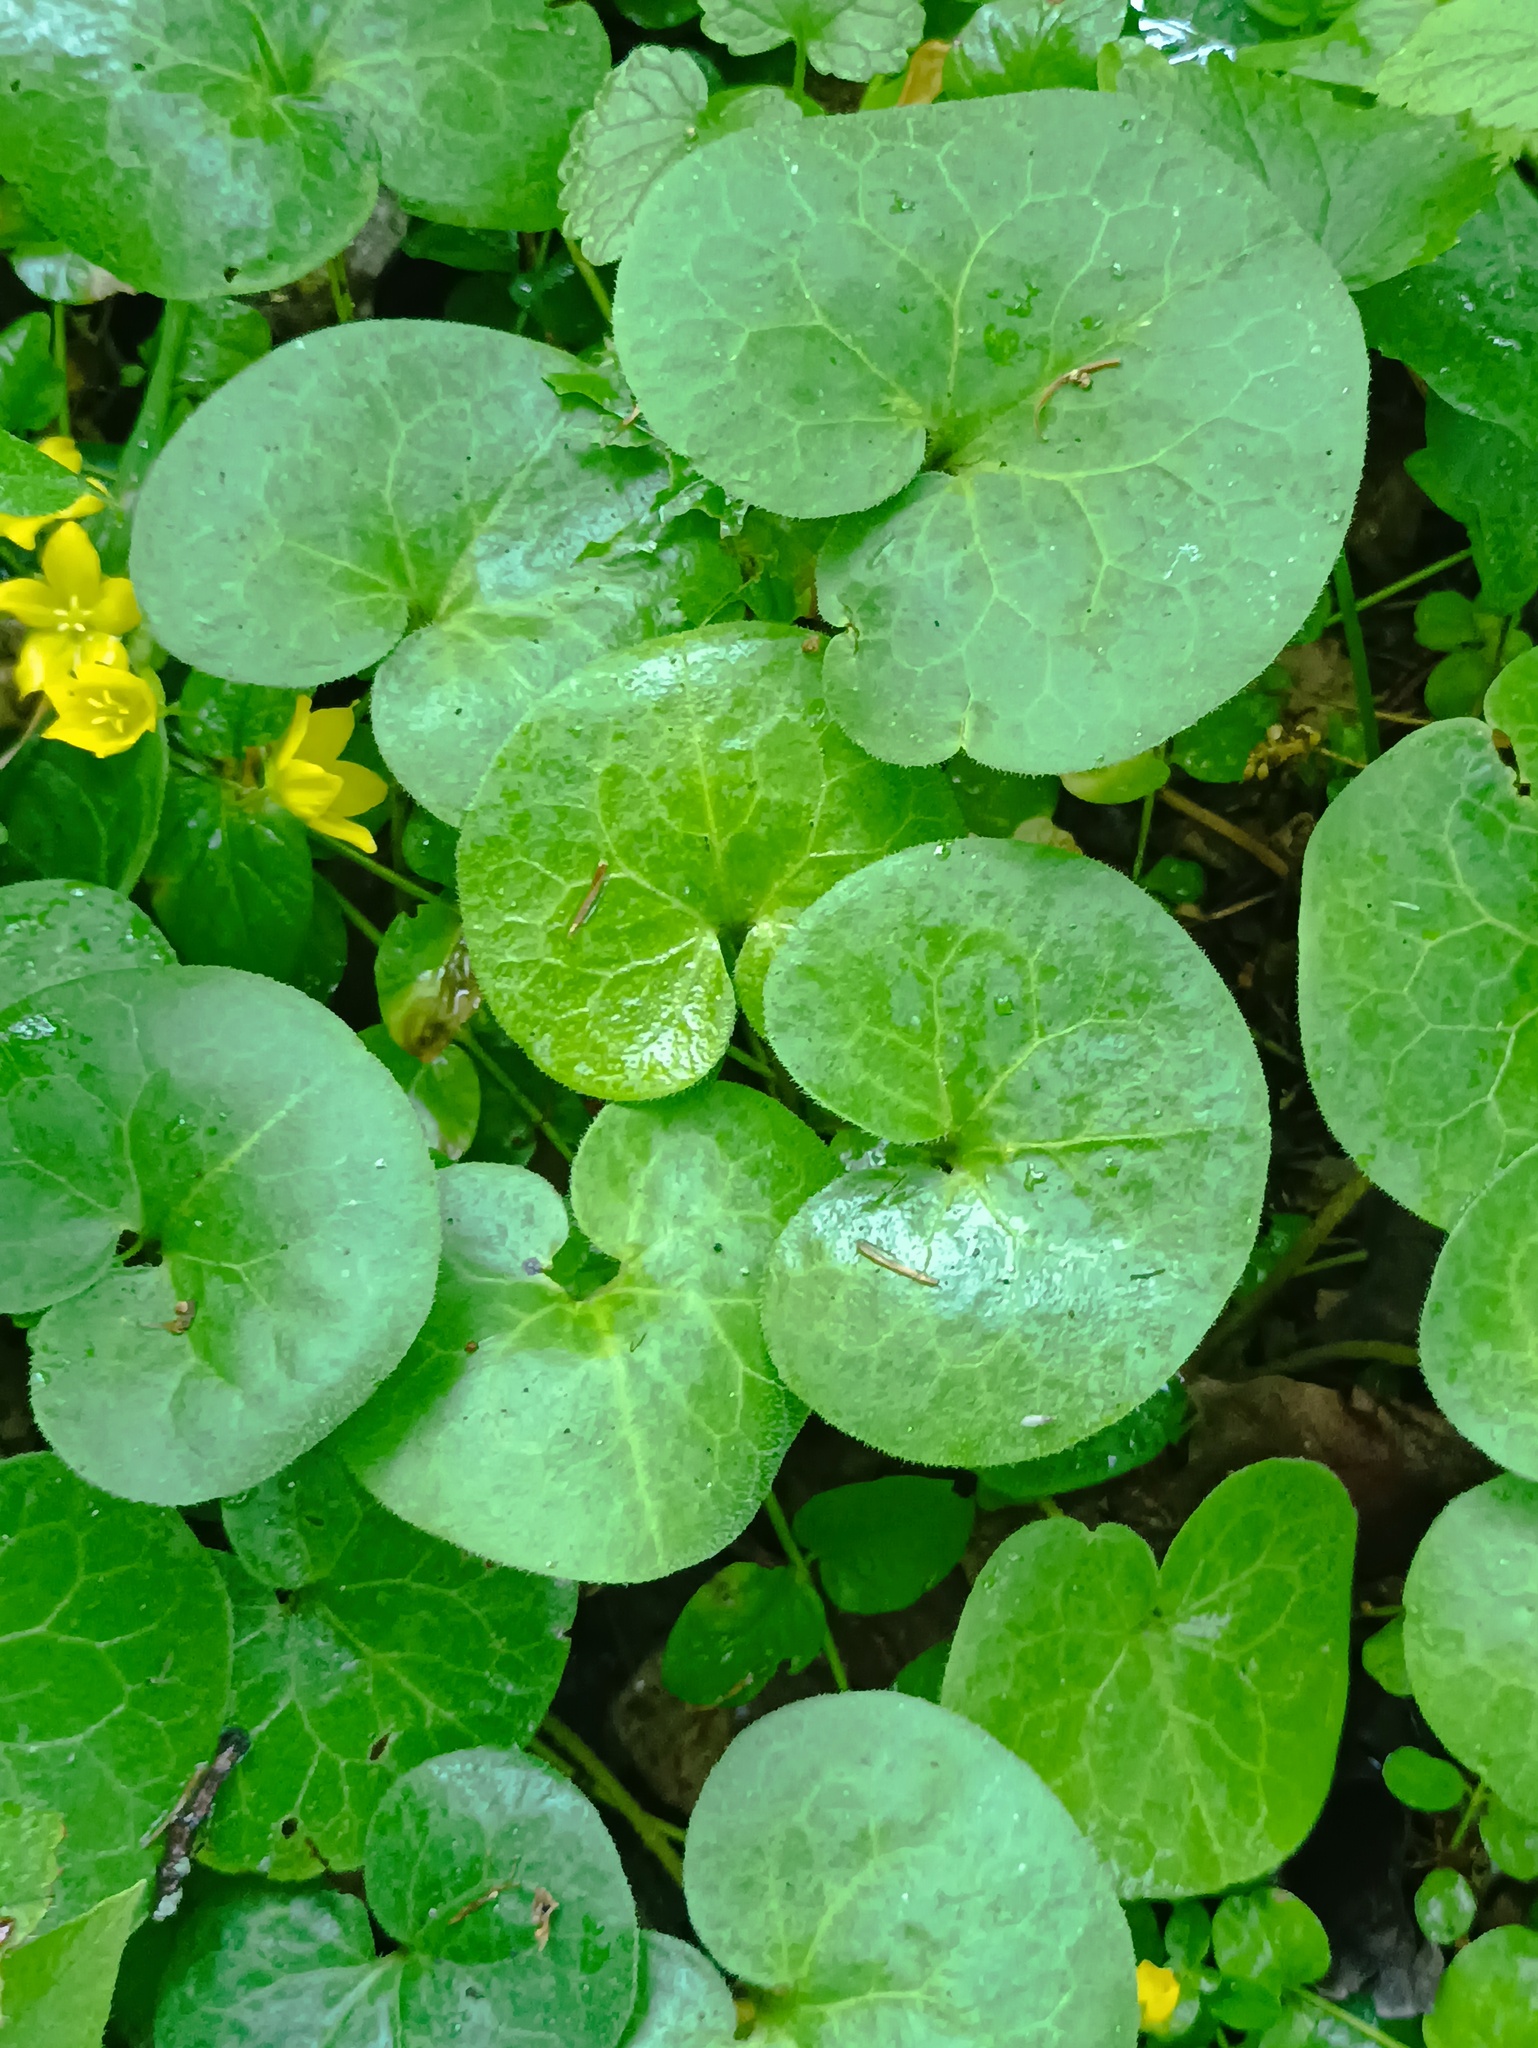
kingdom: Plantae
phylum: Tracheophyta
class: Magnoliopsida
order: Piperales
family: Aristolochiaceae
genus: Asarum
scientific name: Asarum europaeum
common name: Asarabacca
